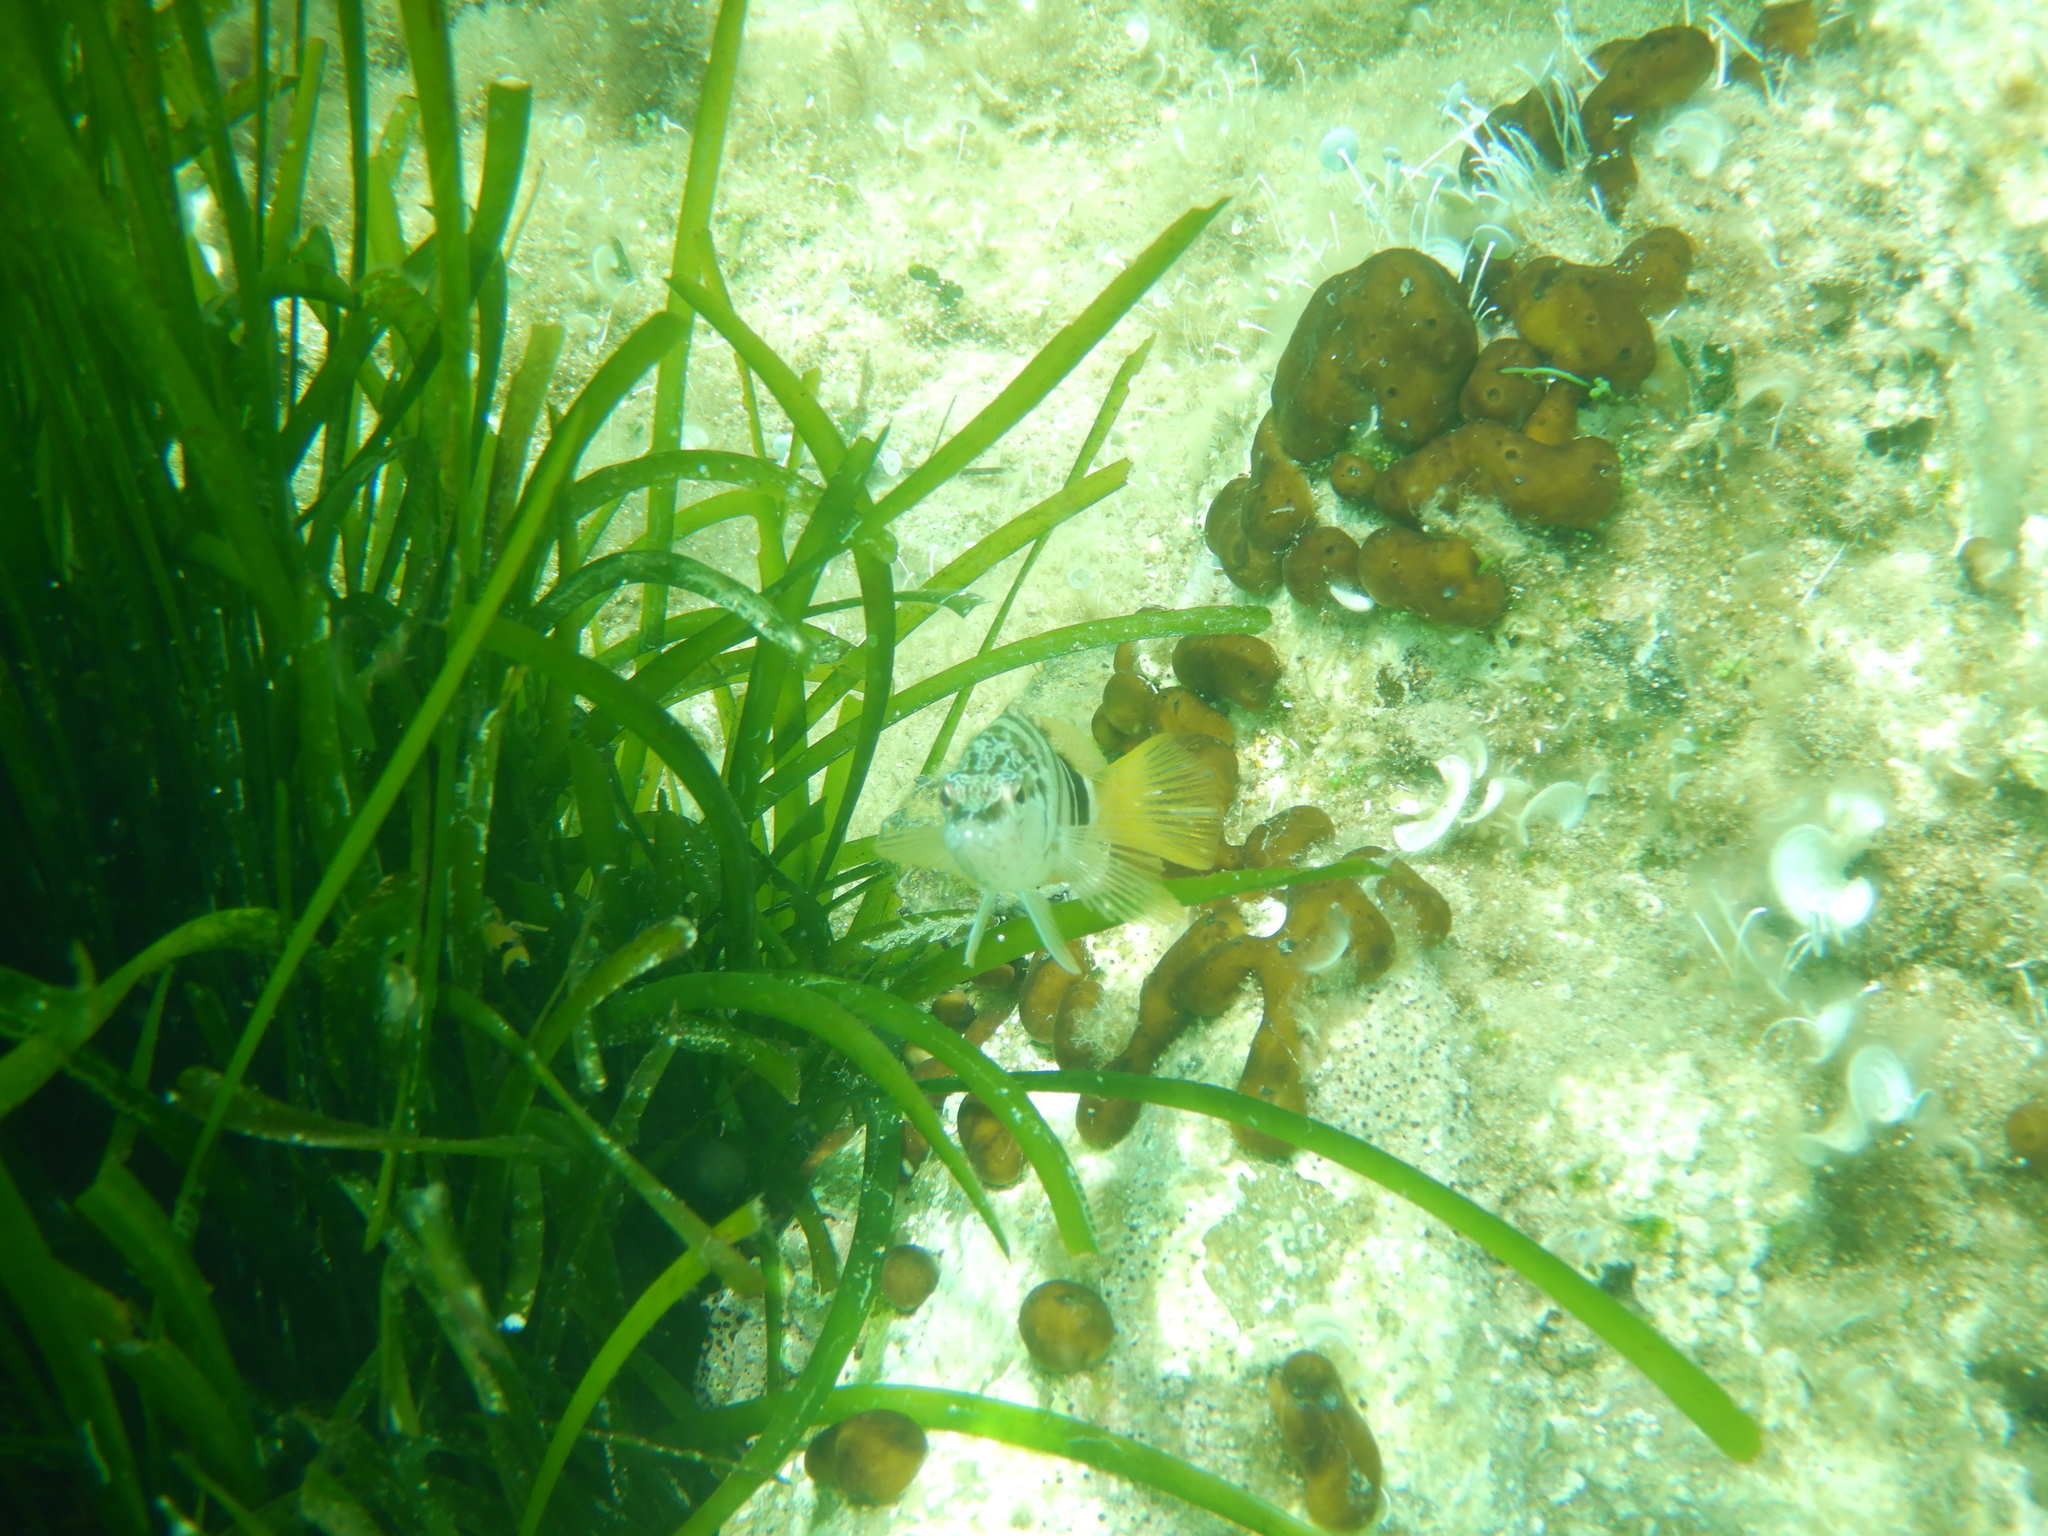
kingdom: Animalia
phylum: Chordata
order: Perciformes
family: Serranidae
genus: Serranus
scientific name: Serranus scriba
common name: Painted comber
